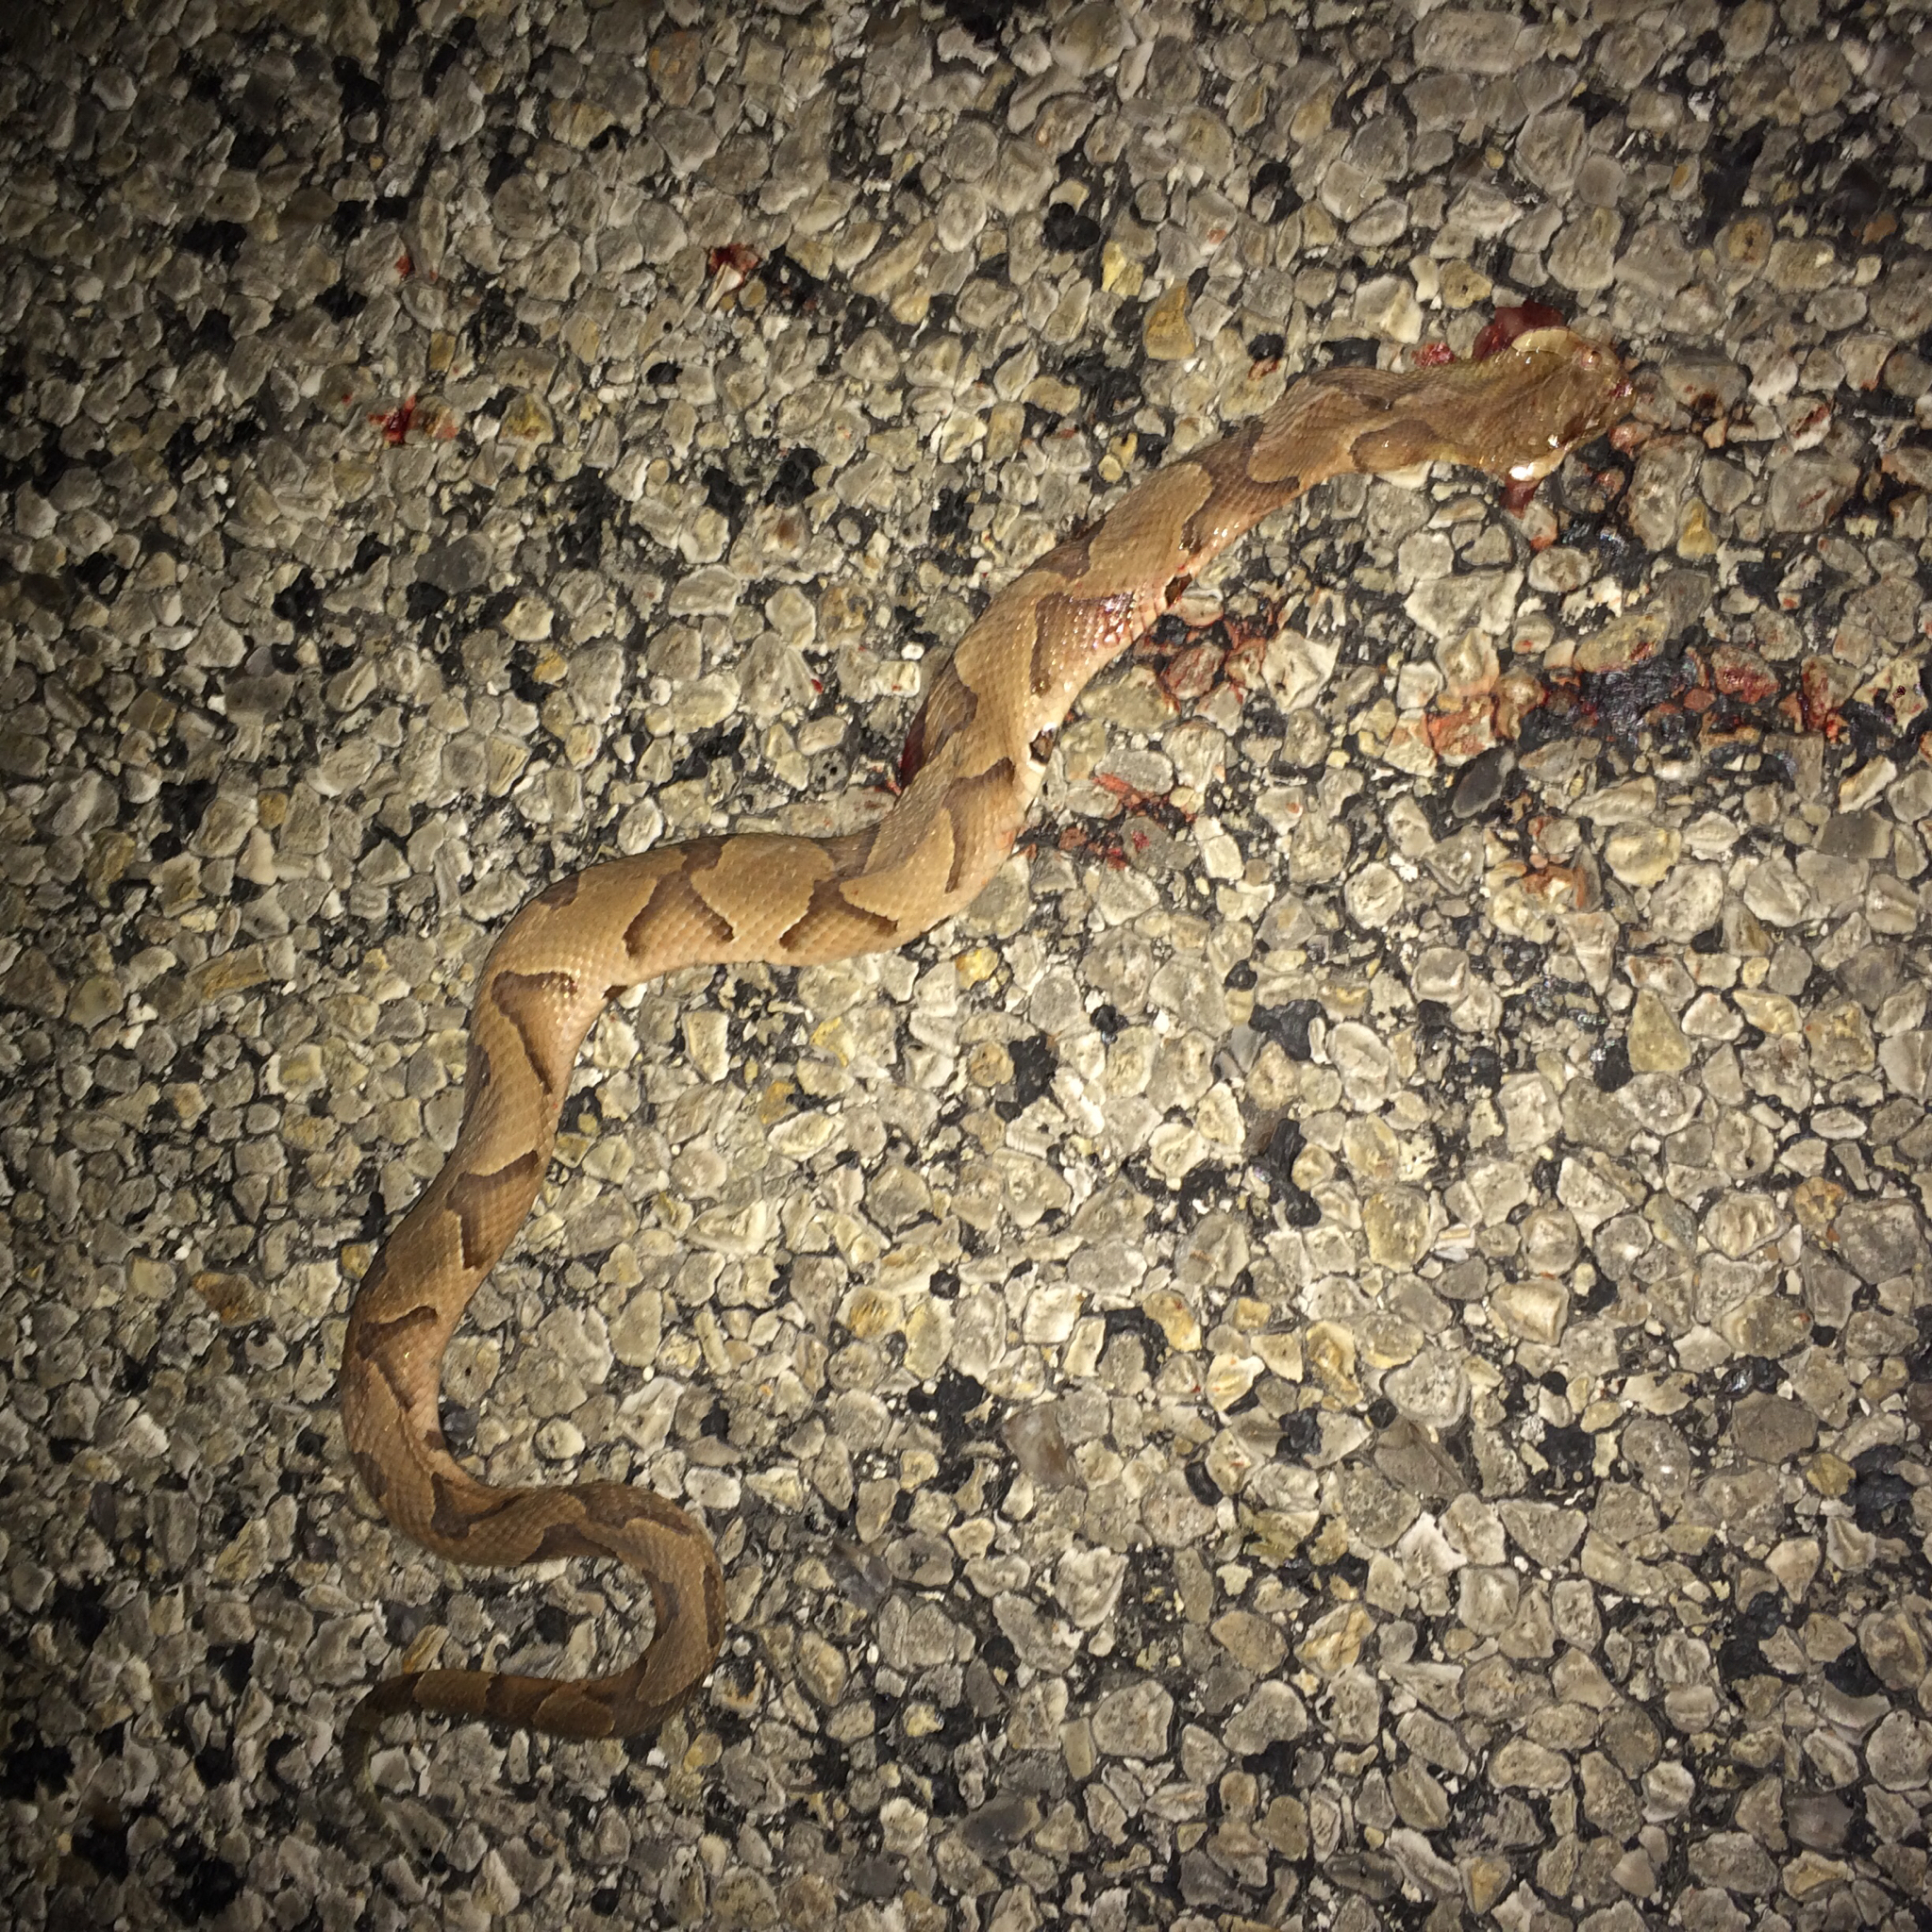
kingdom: Animalia
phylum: Chordata
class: Squamata
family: Viperidae
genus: Agkistrodon
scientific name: Agkistrodon contortrix
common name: Northern copperhead
